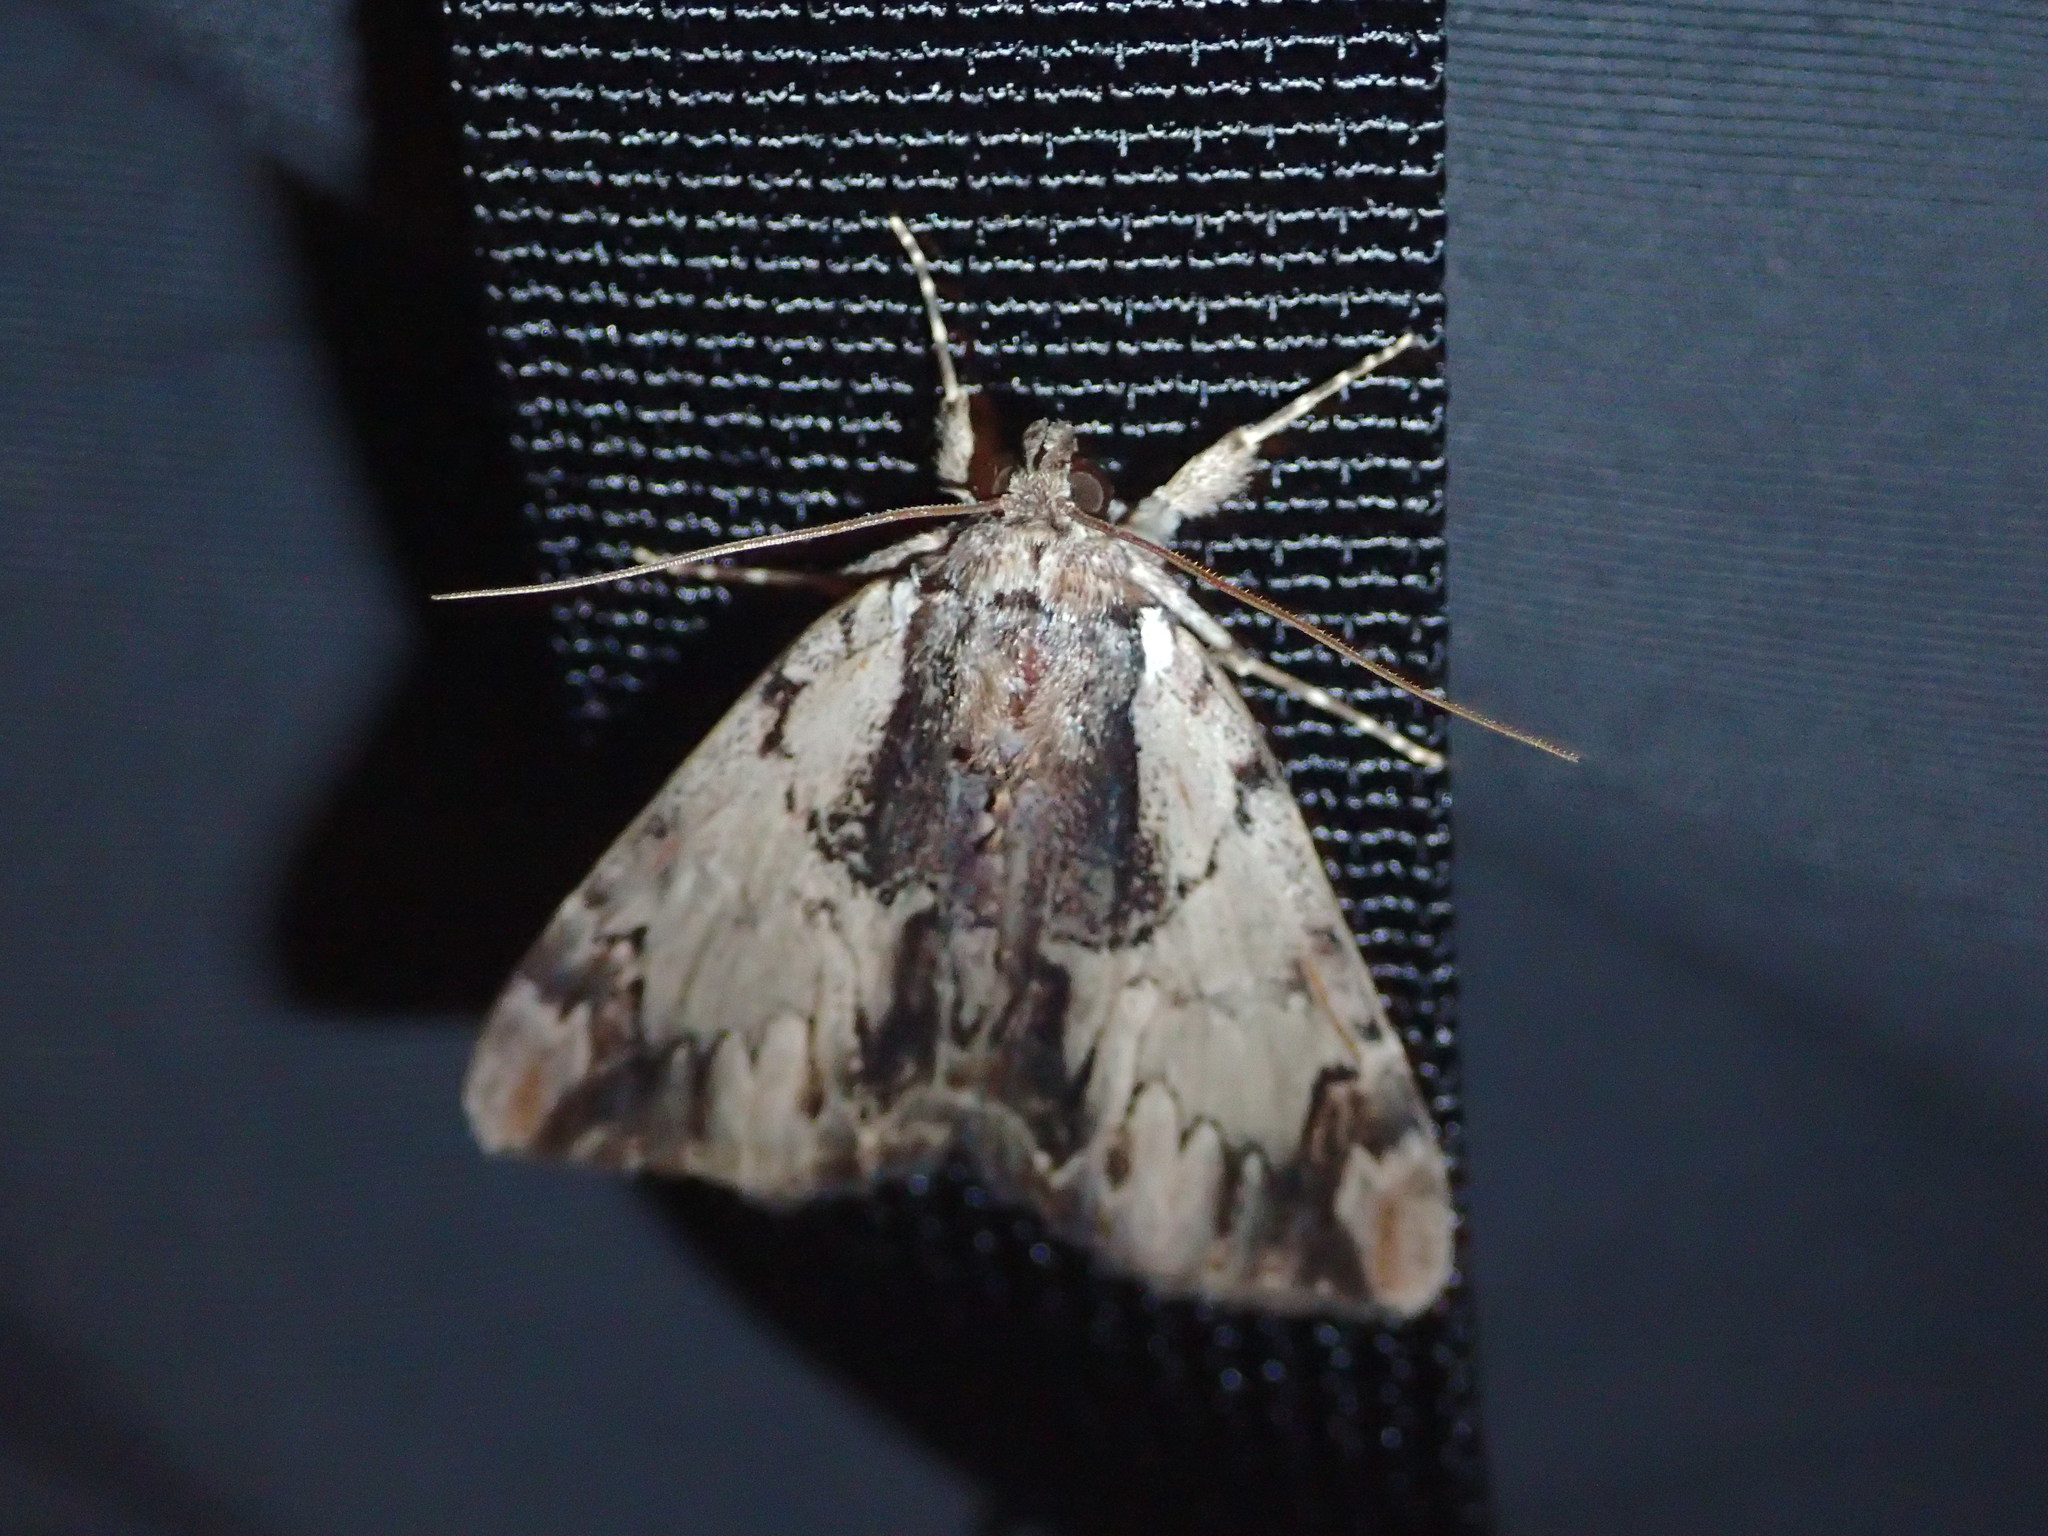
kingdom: Animalia
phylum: Arthropoda
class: Insecta
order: Lepidoptera
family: Erebidae
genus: Catocala
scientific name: Catocala ultronia
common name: Ultronia underwing
